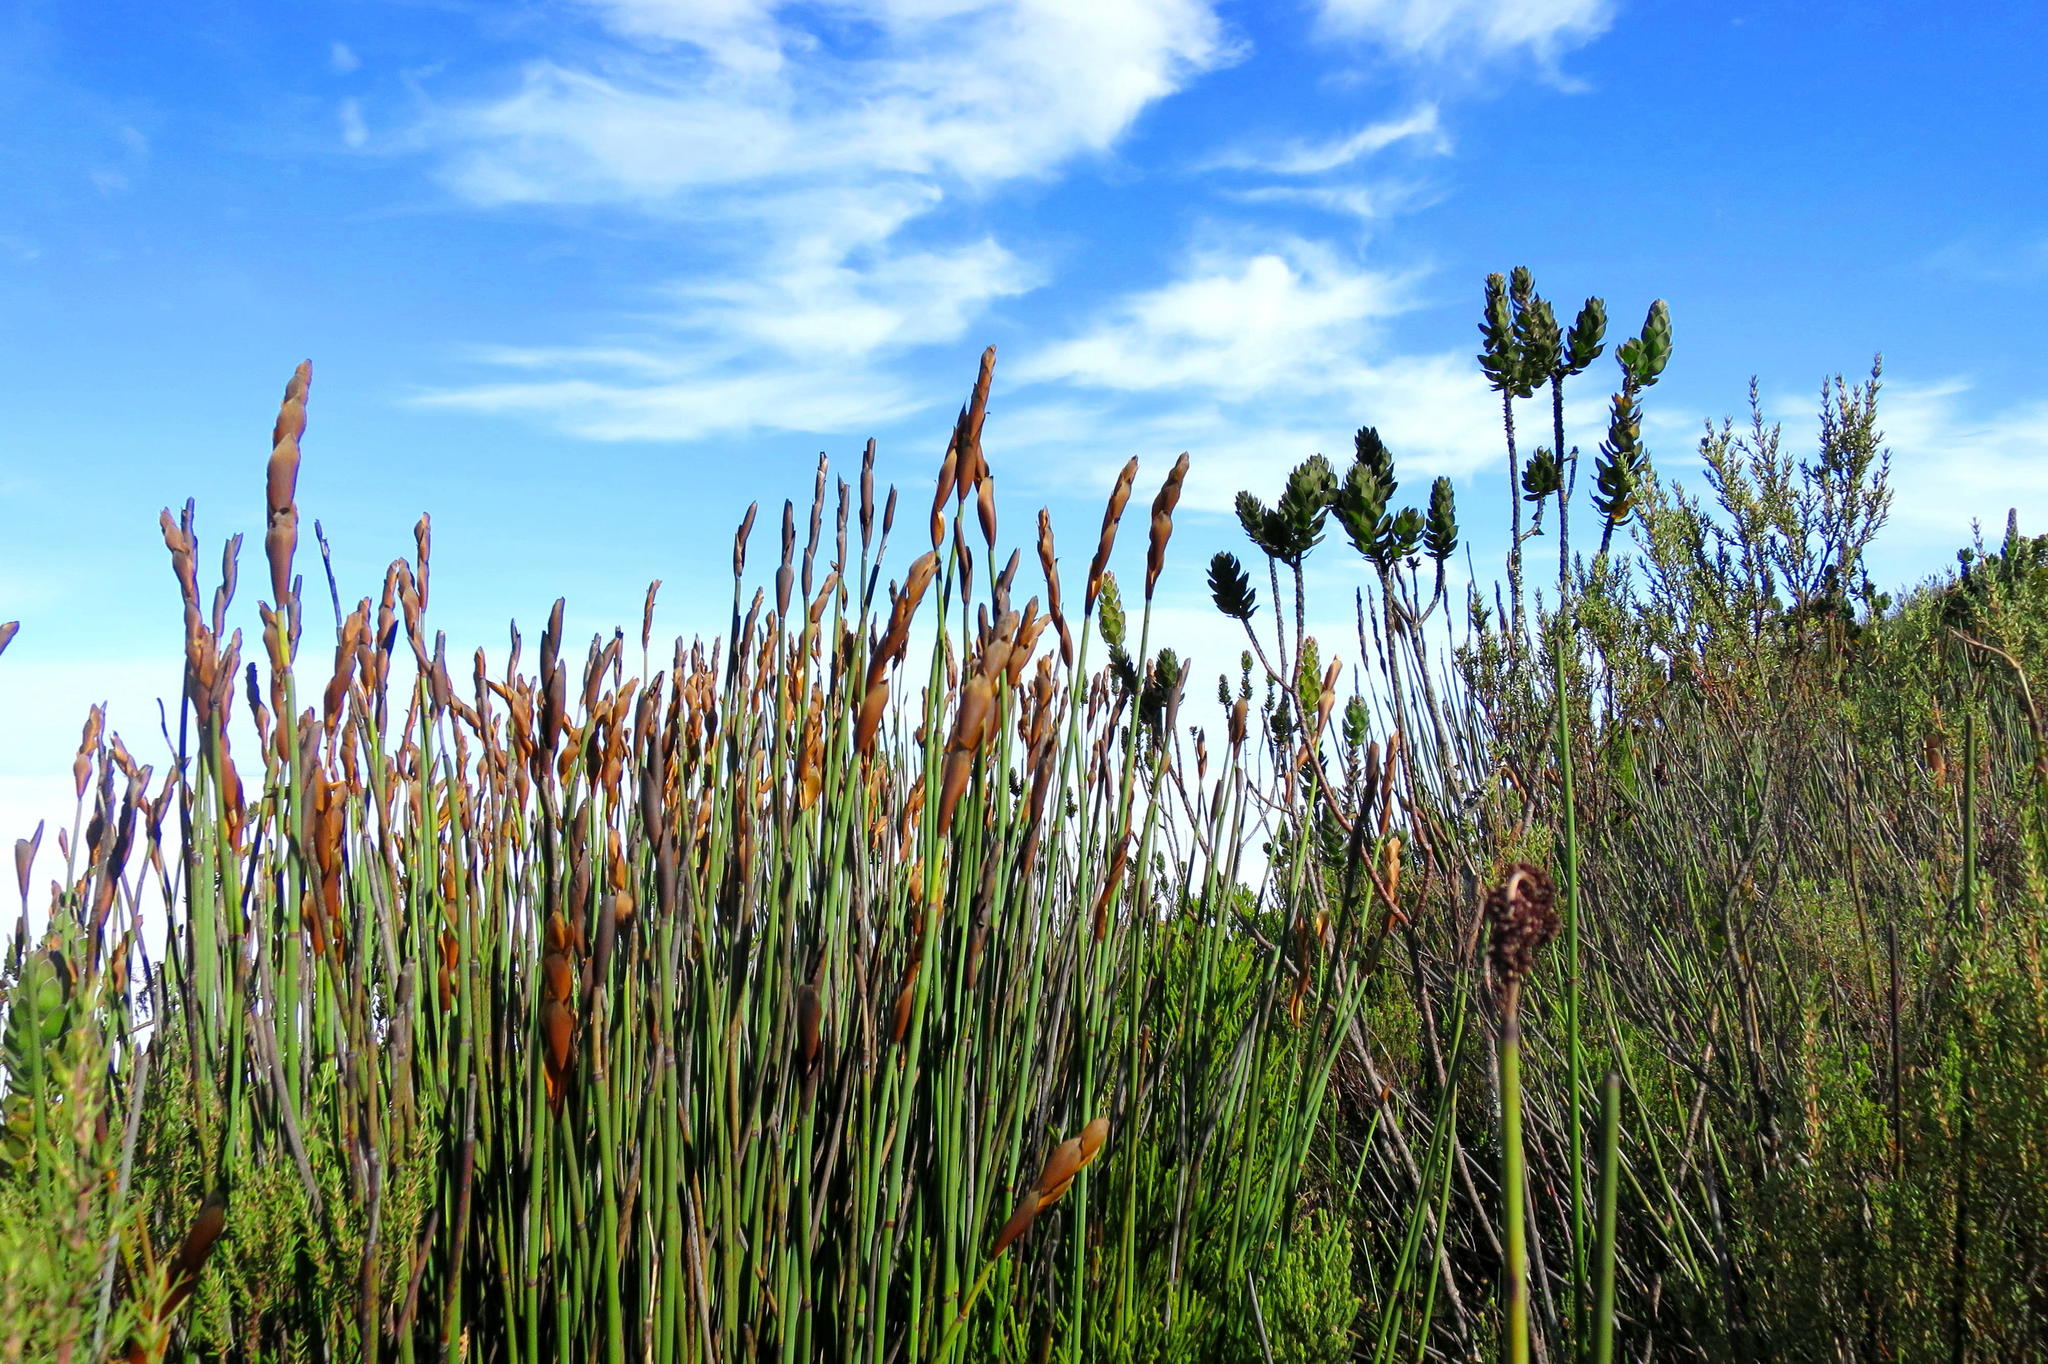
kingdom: Plantae
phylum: Tracheophyta
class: Magnoliopsida
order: Proteales
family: Proteaceae
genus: Mimetes
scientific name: Mimetes pauciflora
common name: Three-flowered pagoda
